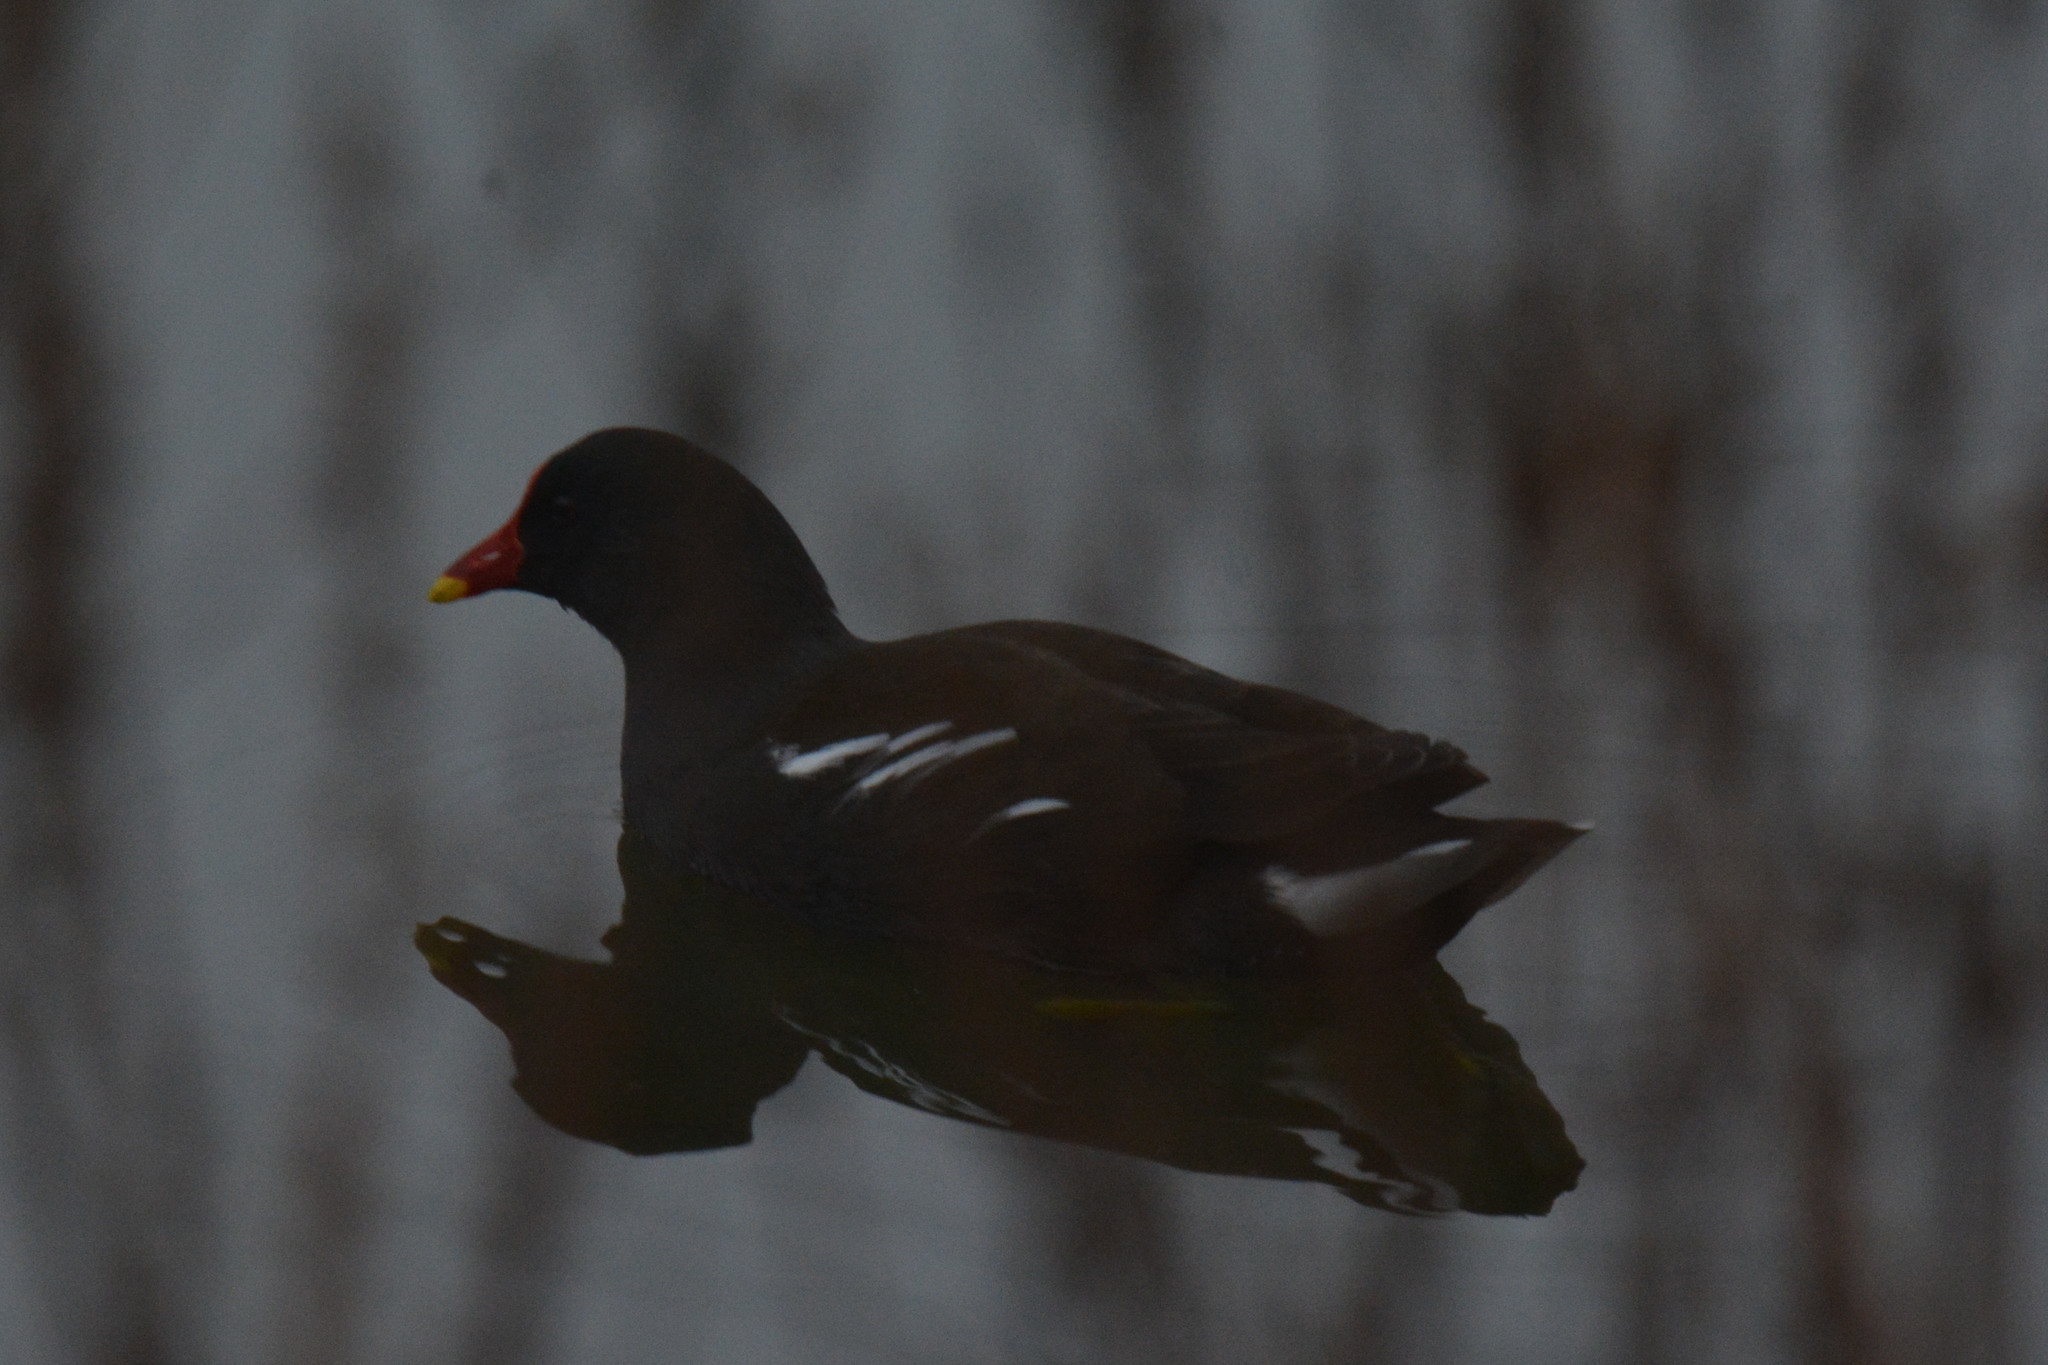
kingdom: Animalia
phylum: Chordata
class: Aves
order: Gruiformes
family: Rallidae
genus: Gallinula
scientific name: Gallinula chloropus
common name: Common moorhen
